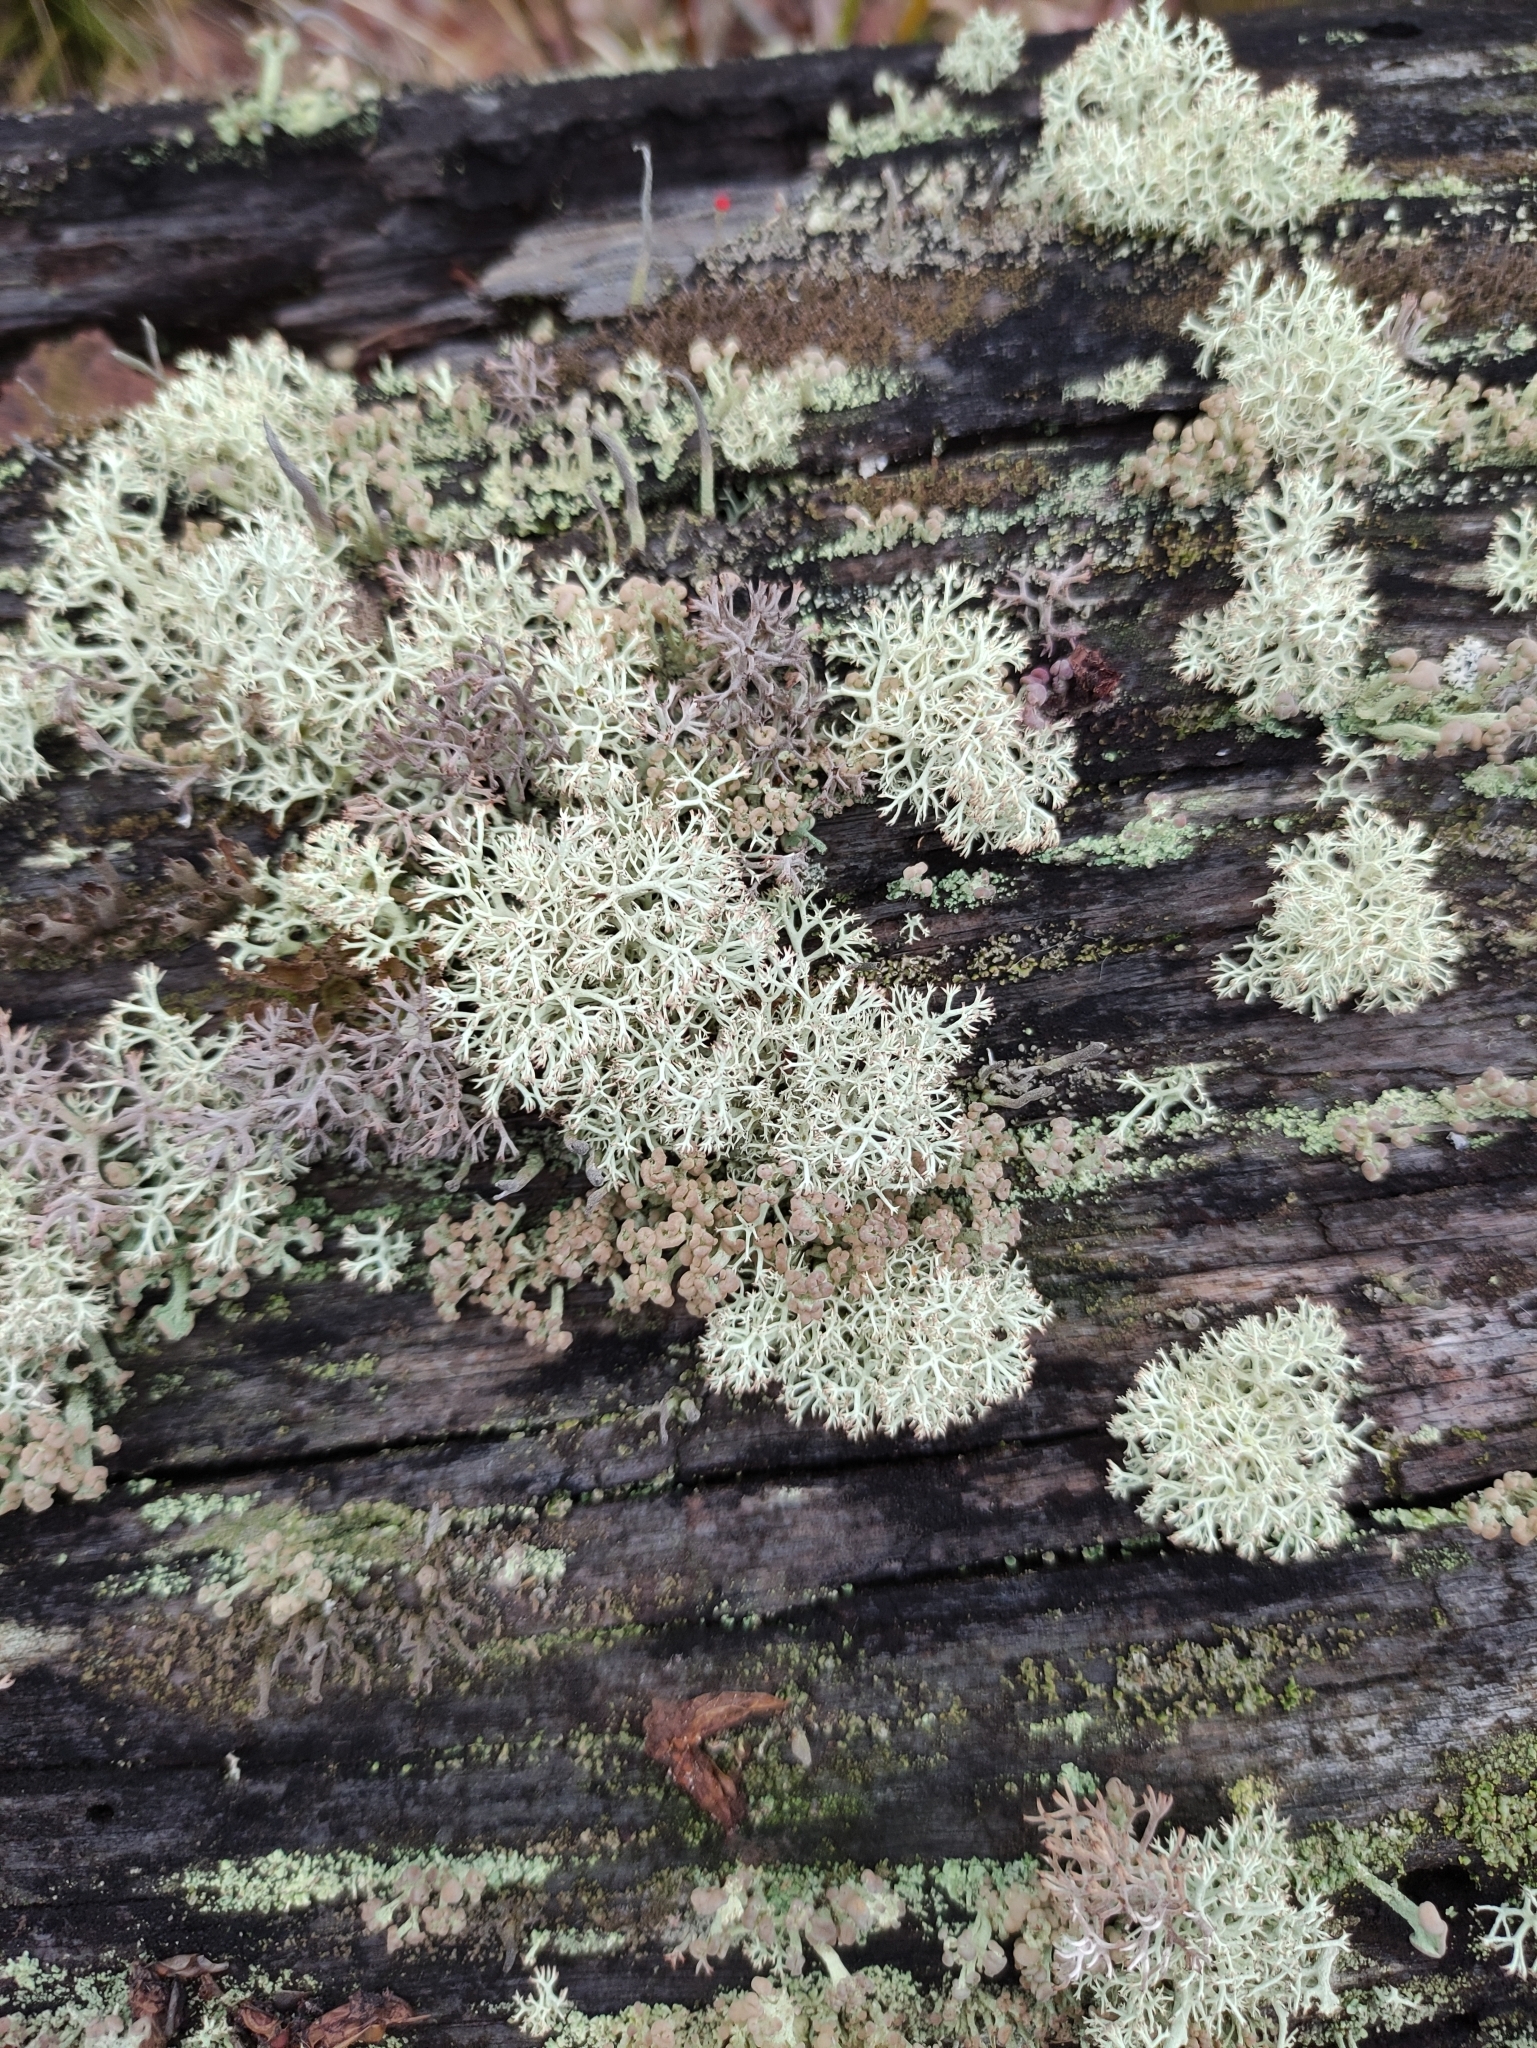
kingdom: Fungi
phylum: Ascomycota
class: Lecanoromycetes
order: Lecanorales
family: Cladoniaceae
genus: Cladonia
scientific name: Cladonia rangiferina
